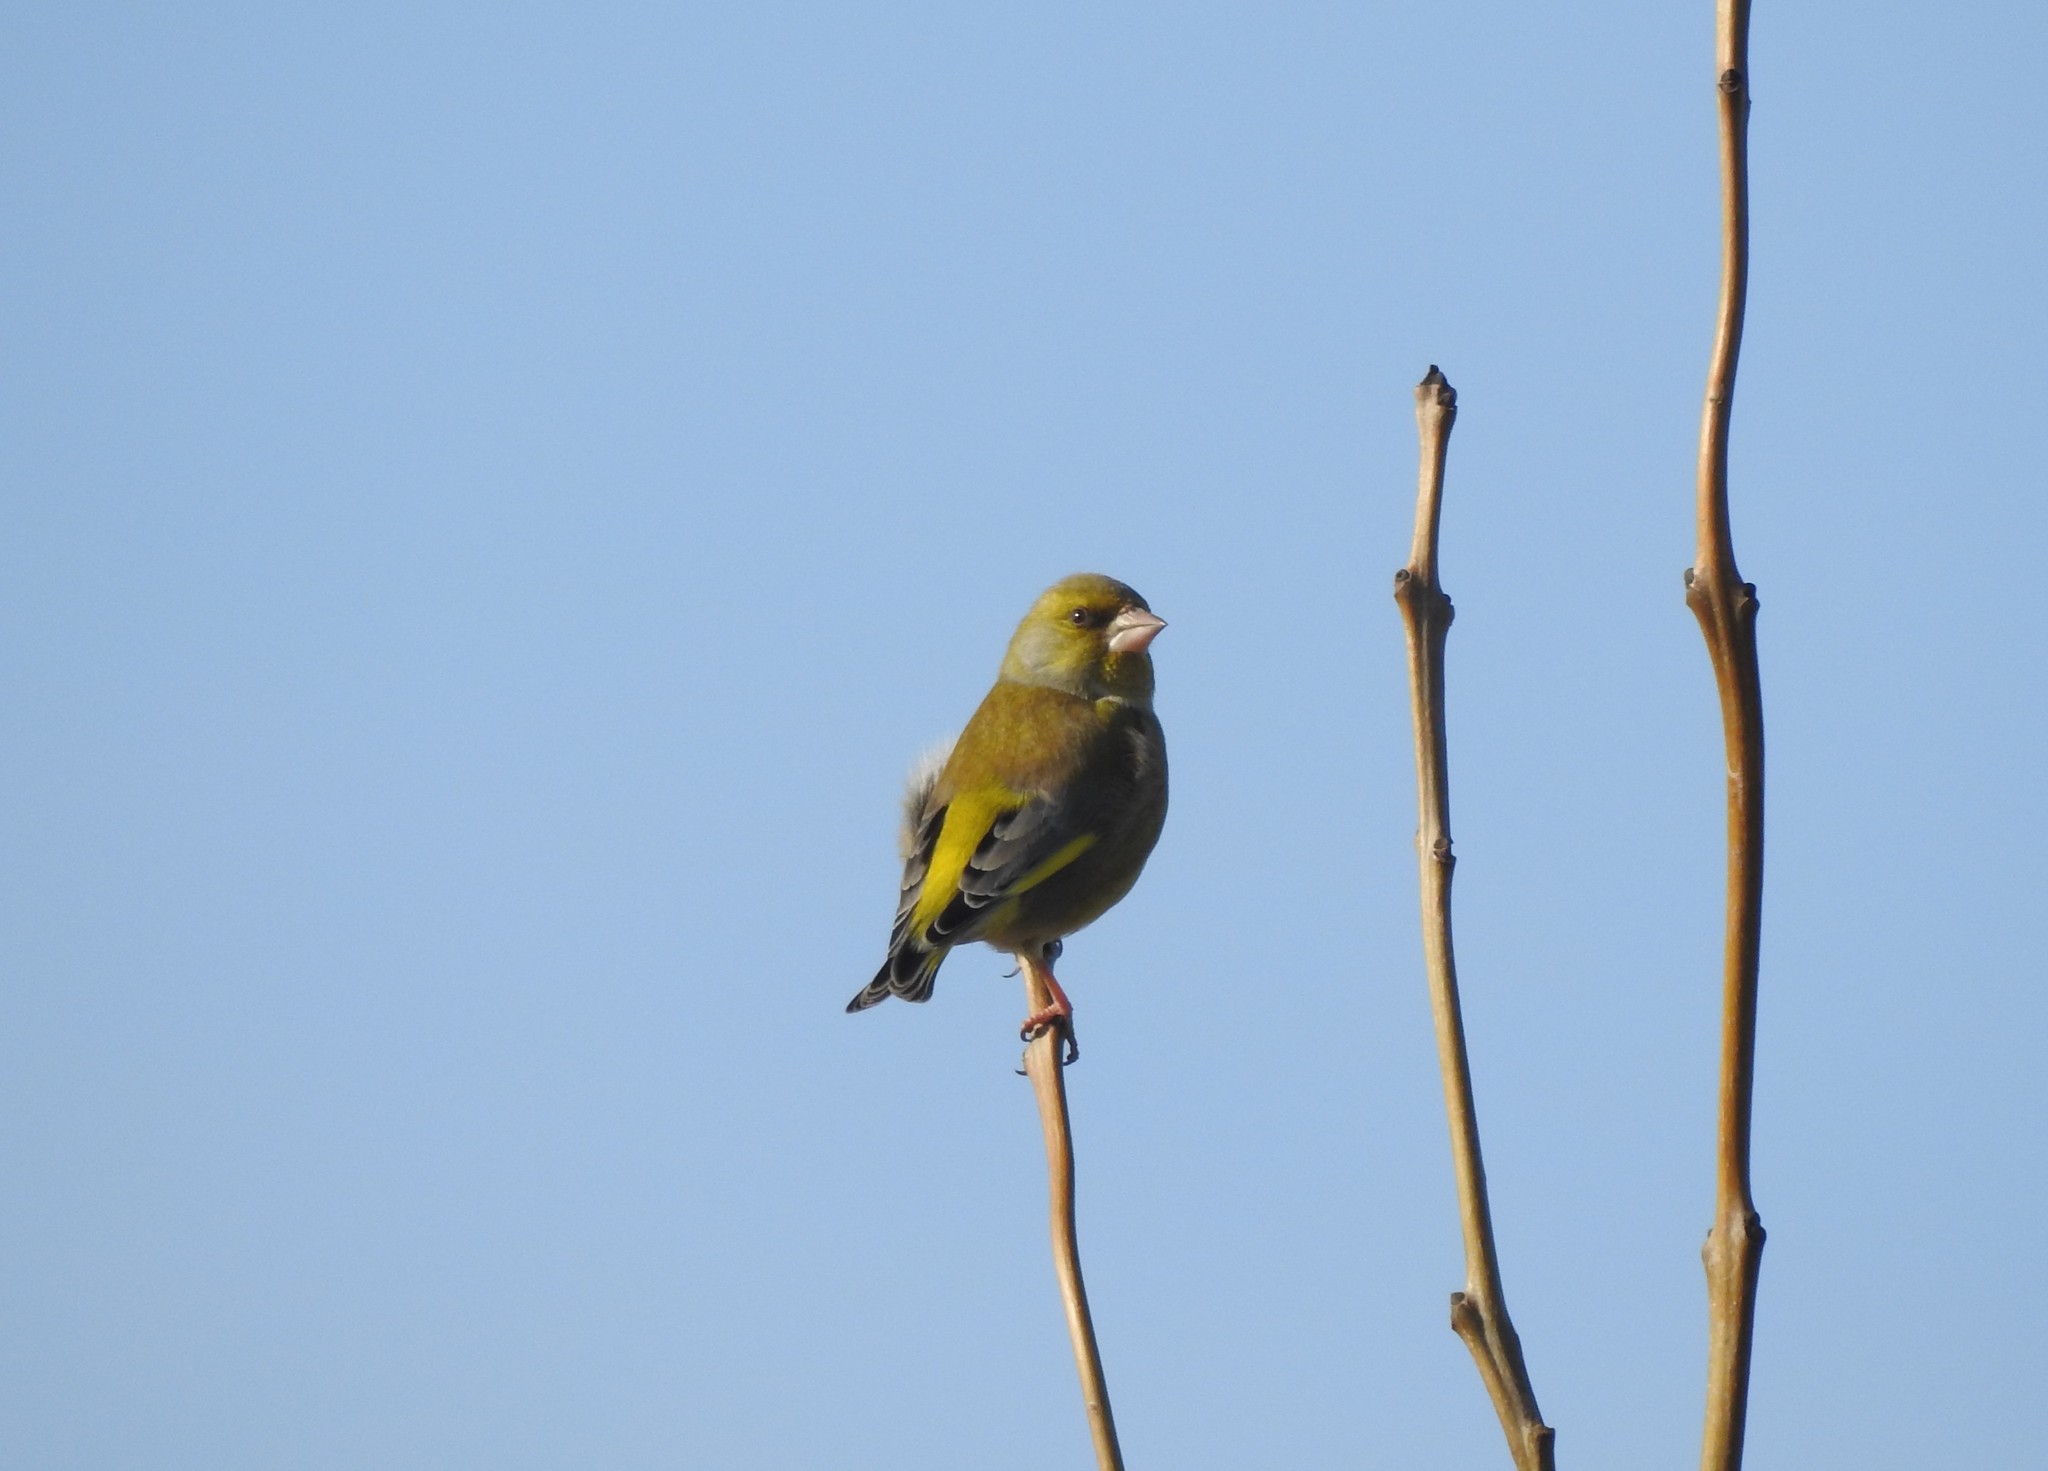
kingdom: Plantae
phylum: Tracheophyta
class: Liliopsida
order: Poales
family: Poaceae
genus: Chloris
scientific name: Chloris chloris
